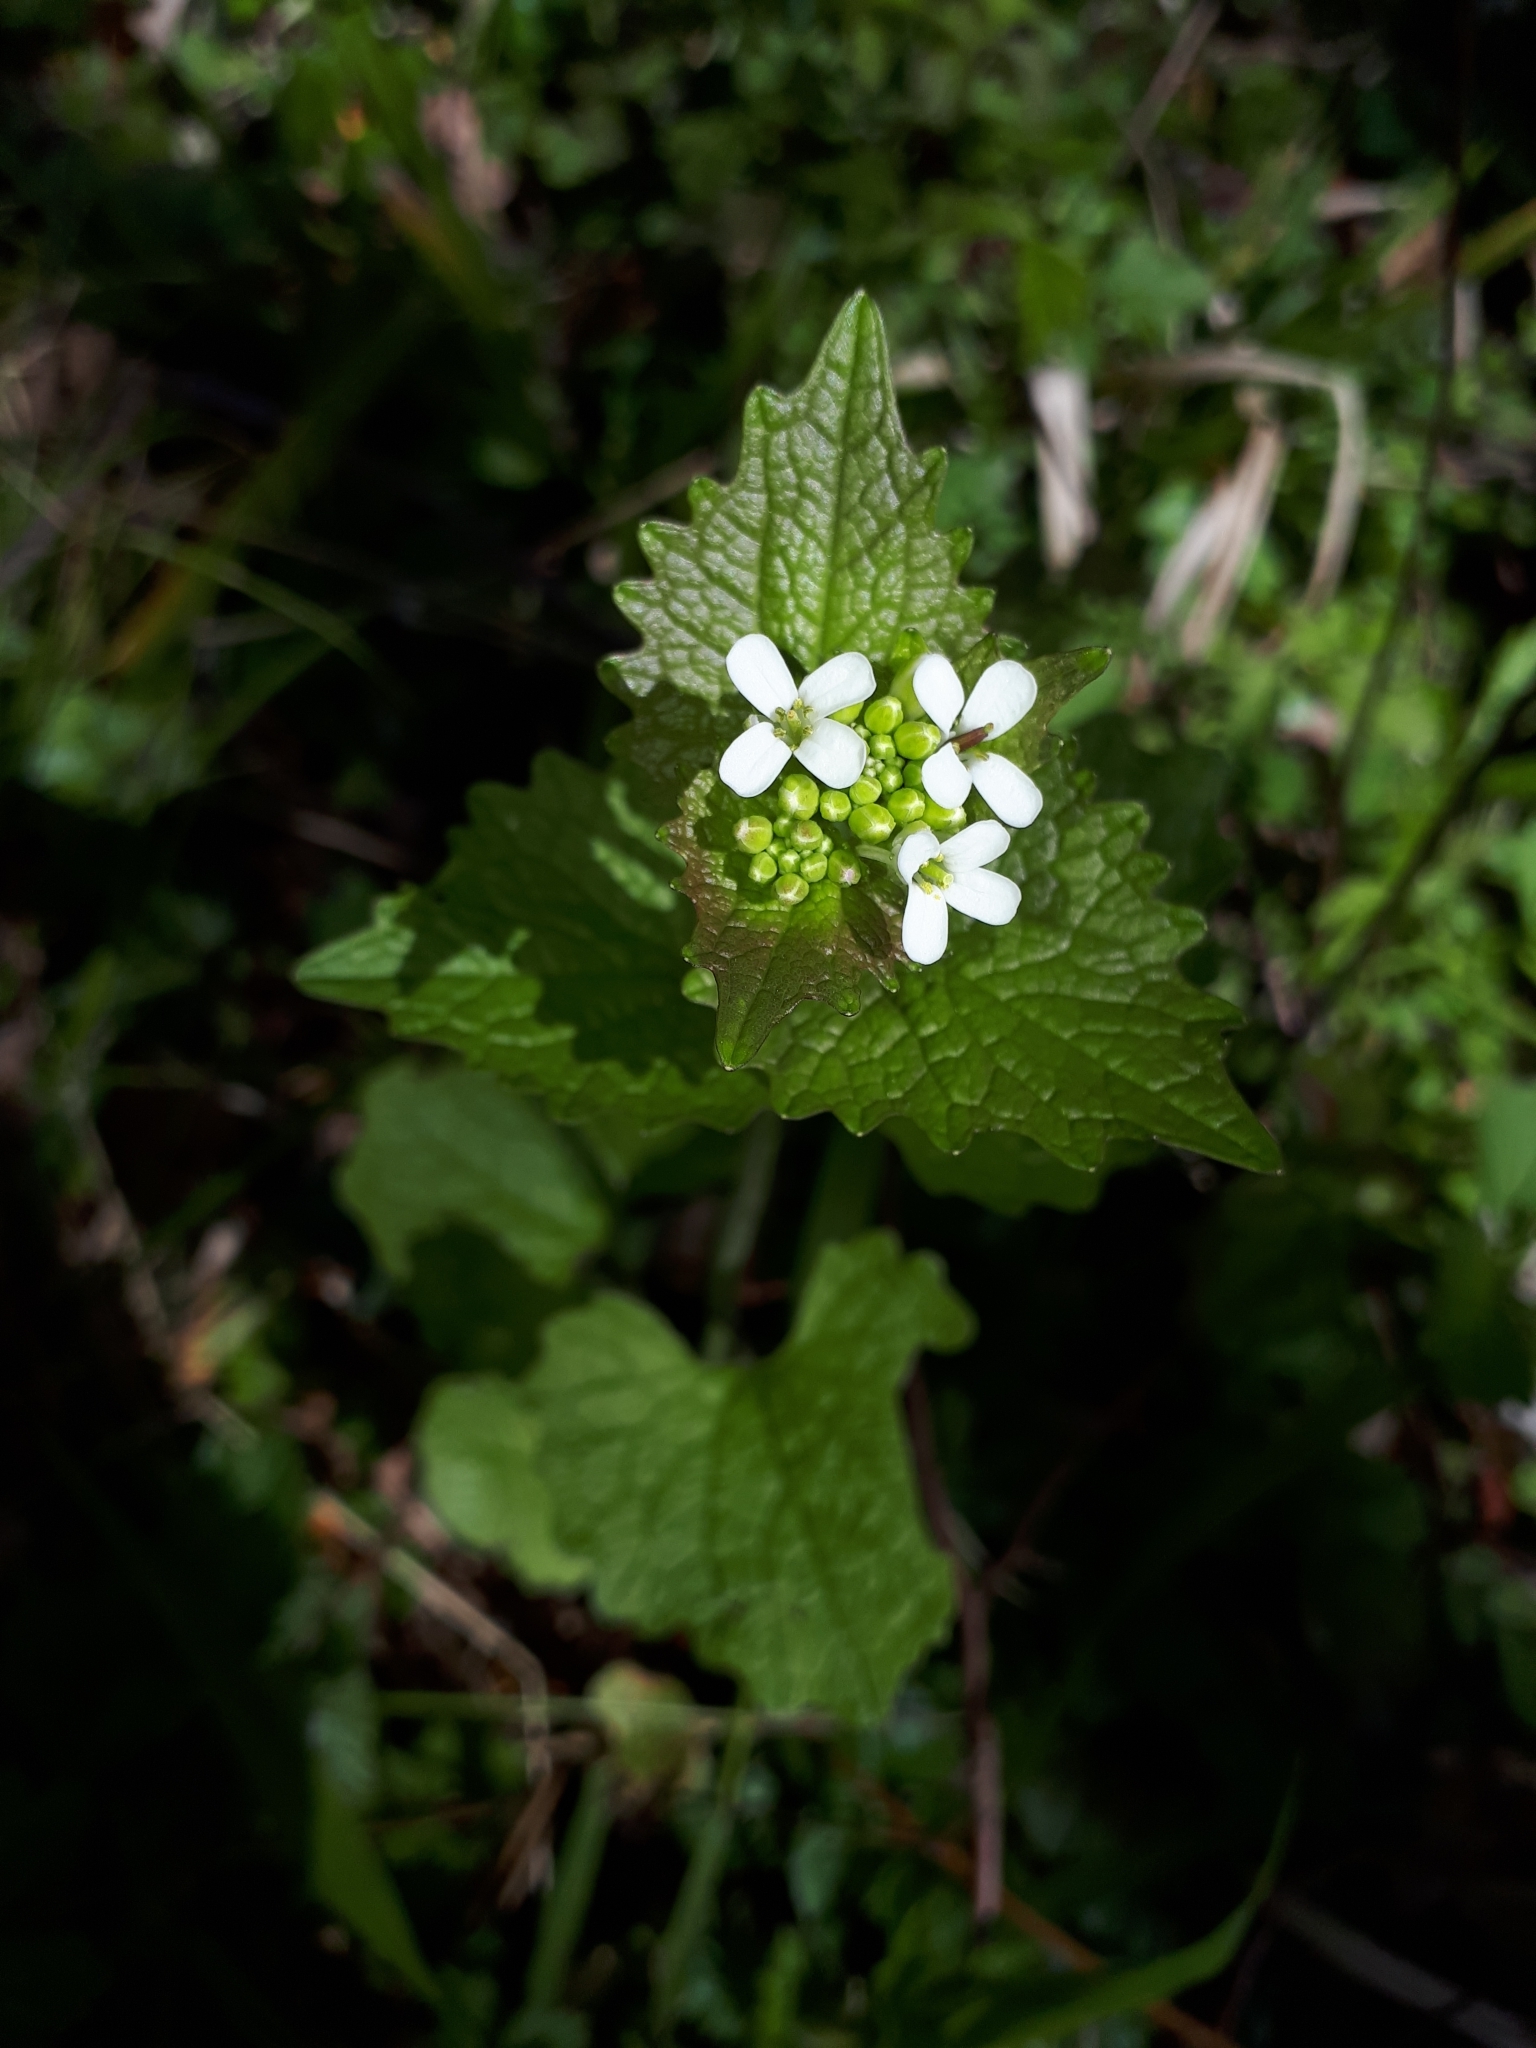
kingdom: Plantae
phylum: Tracheophyta
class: Magnoliopsida
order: Brassicales
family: Brassicaceae
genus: Alliaria
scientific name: Alliaria petiolata
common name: Garlic mustard
